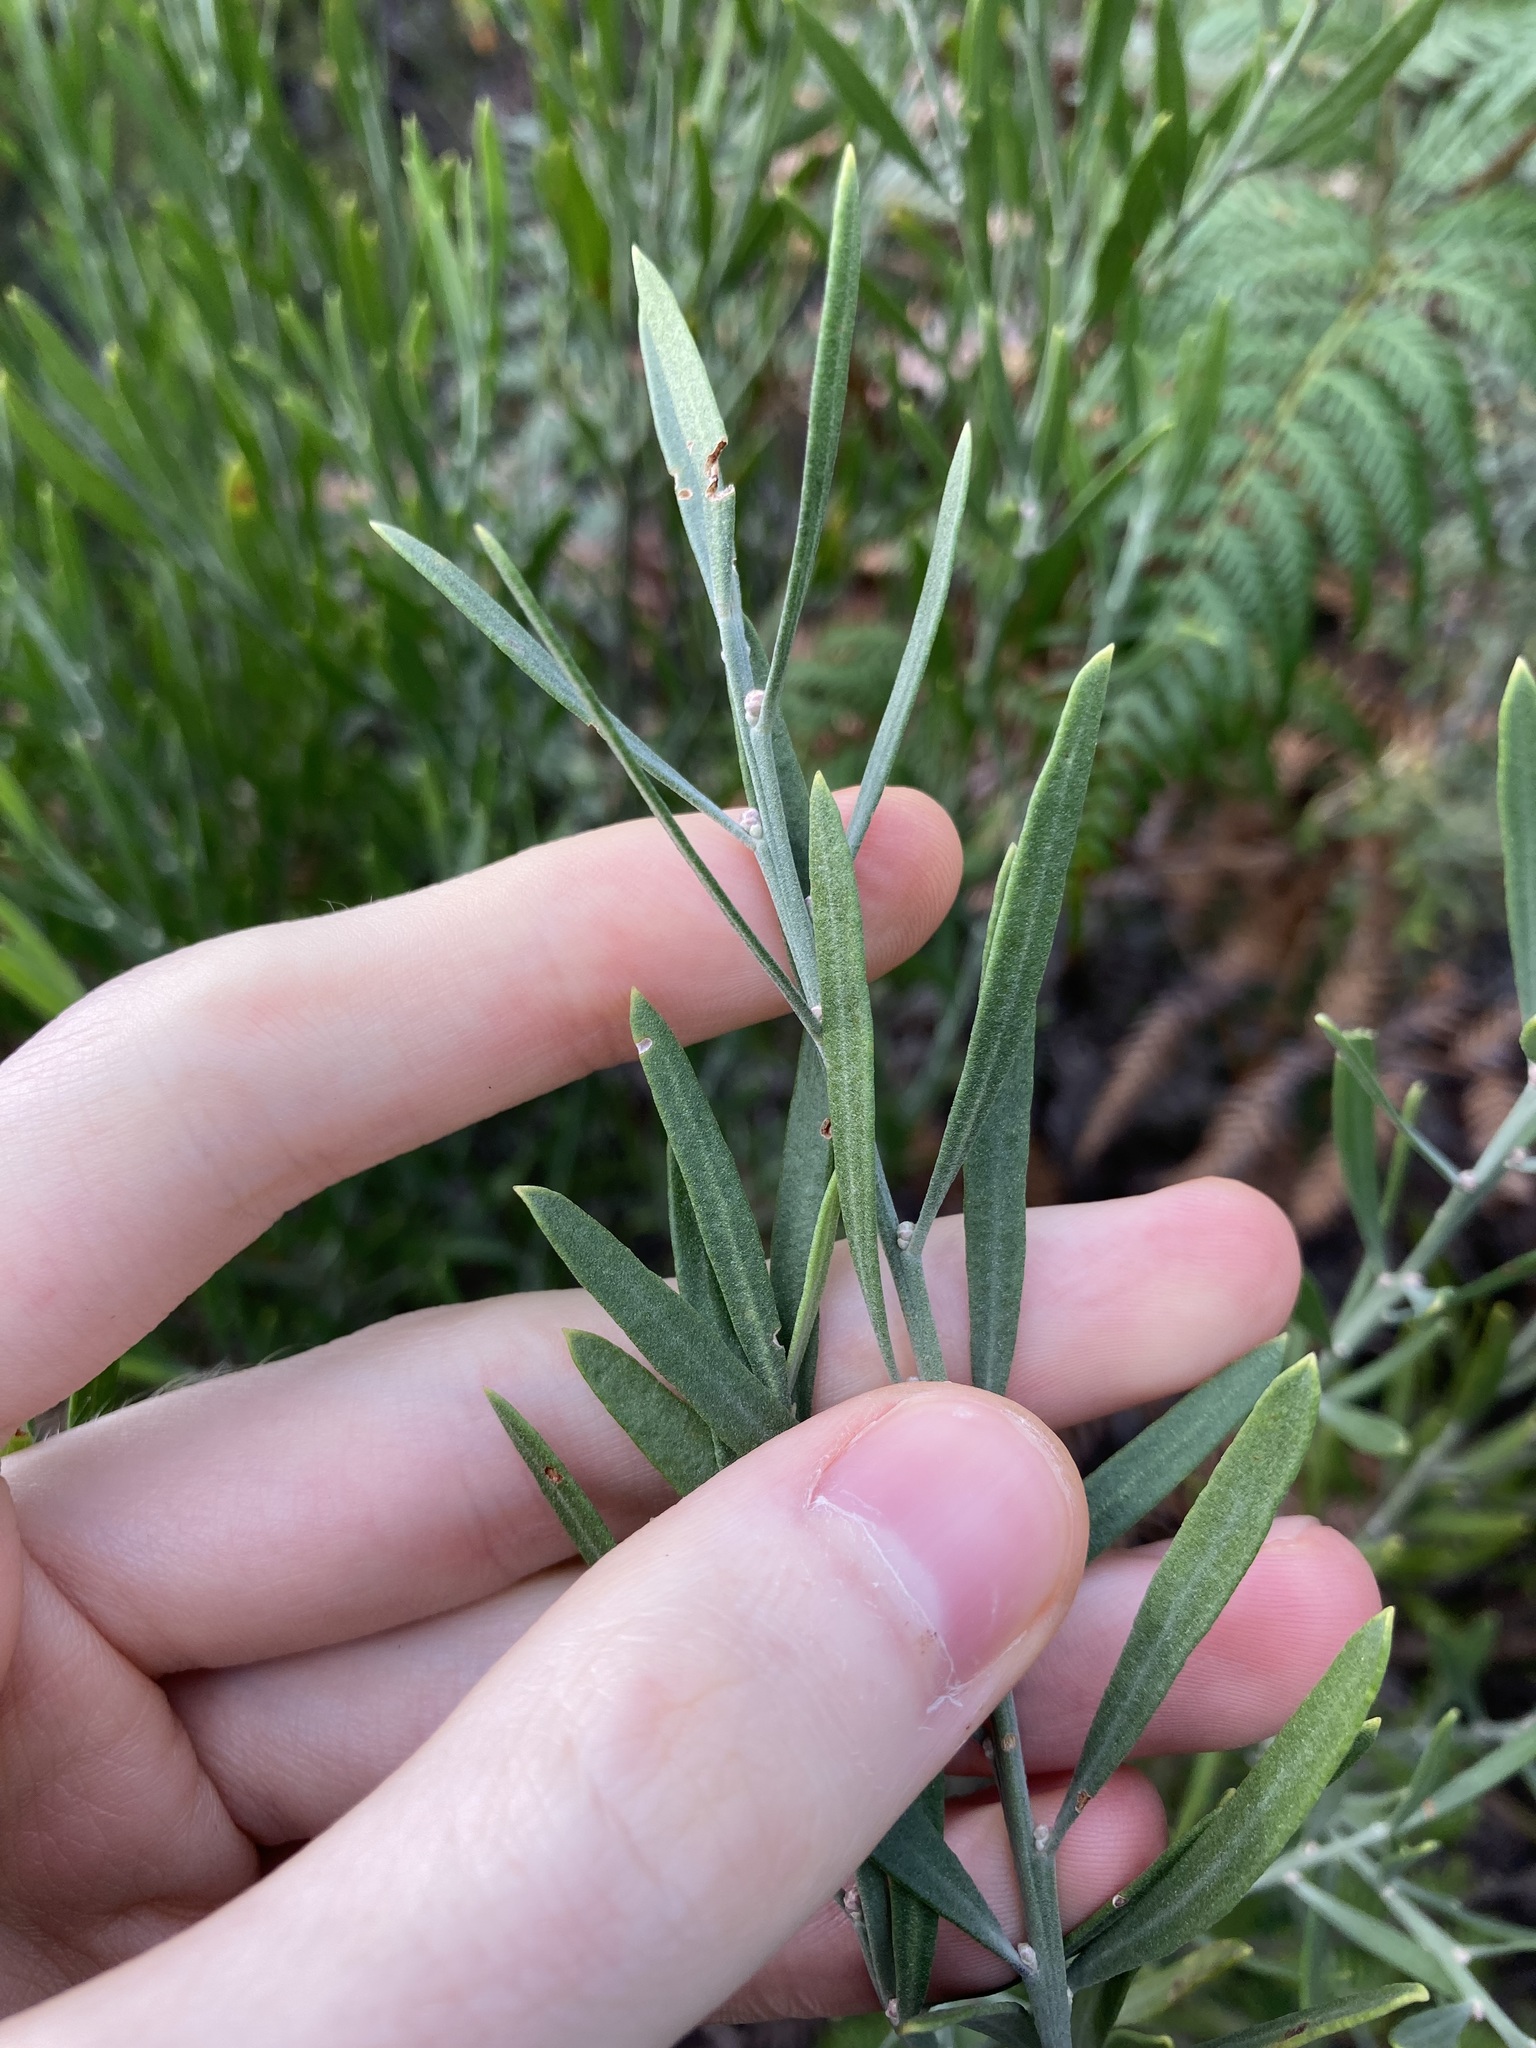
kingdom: Plantae
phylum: Tracheophyta
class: Magnoliopsida
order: Sapindales
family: Rutaceae
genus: Eriostemon
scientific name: Eriostemon australasius
